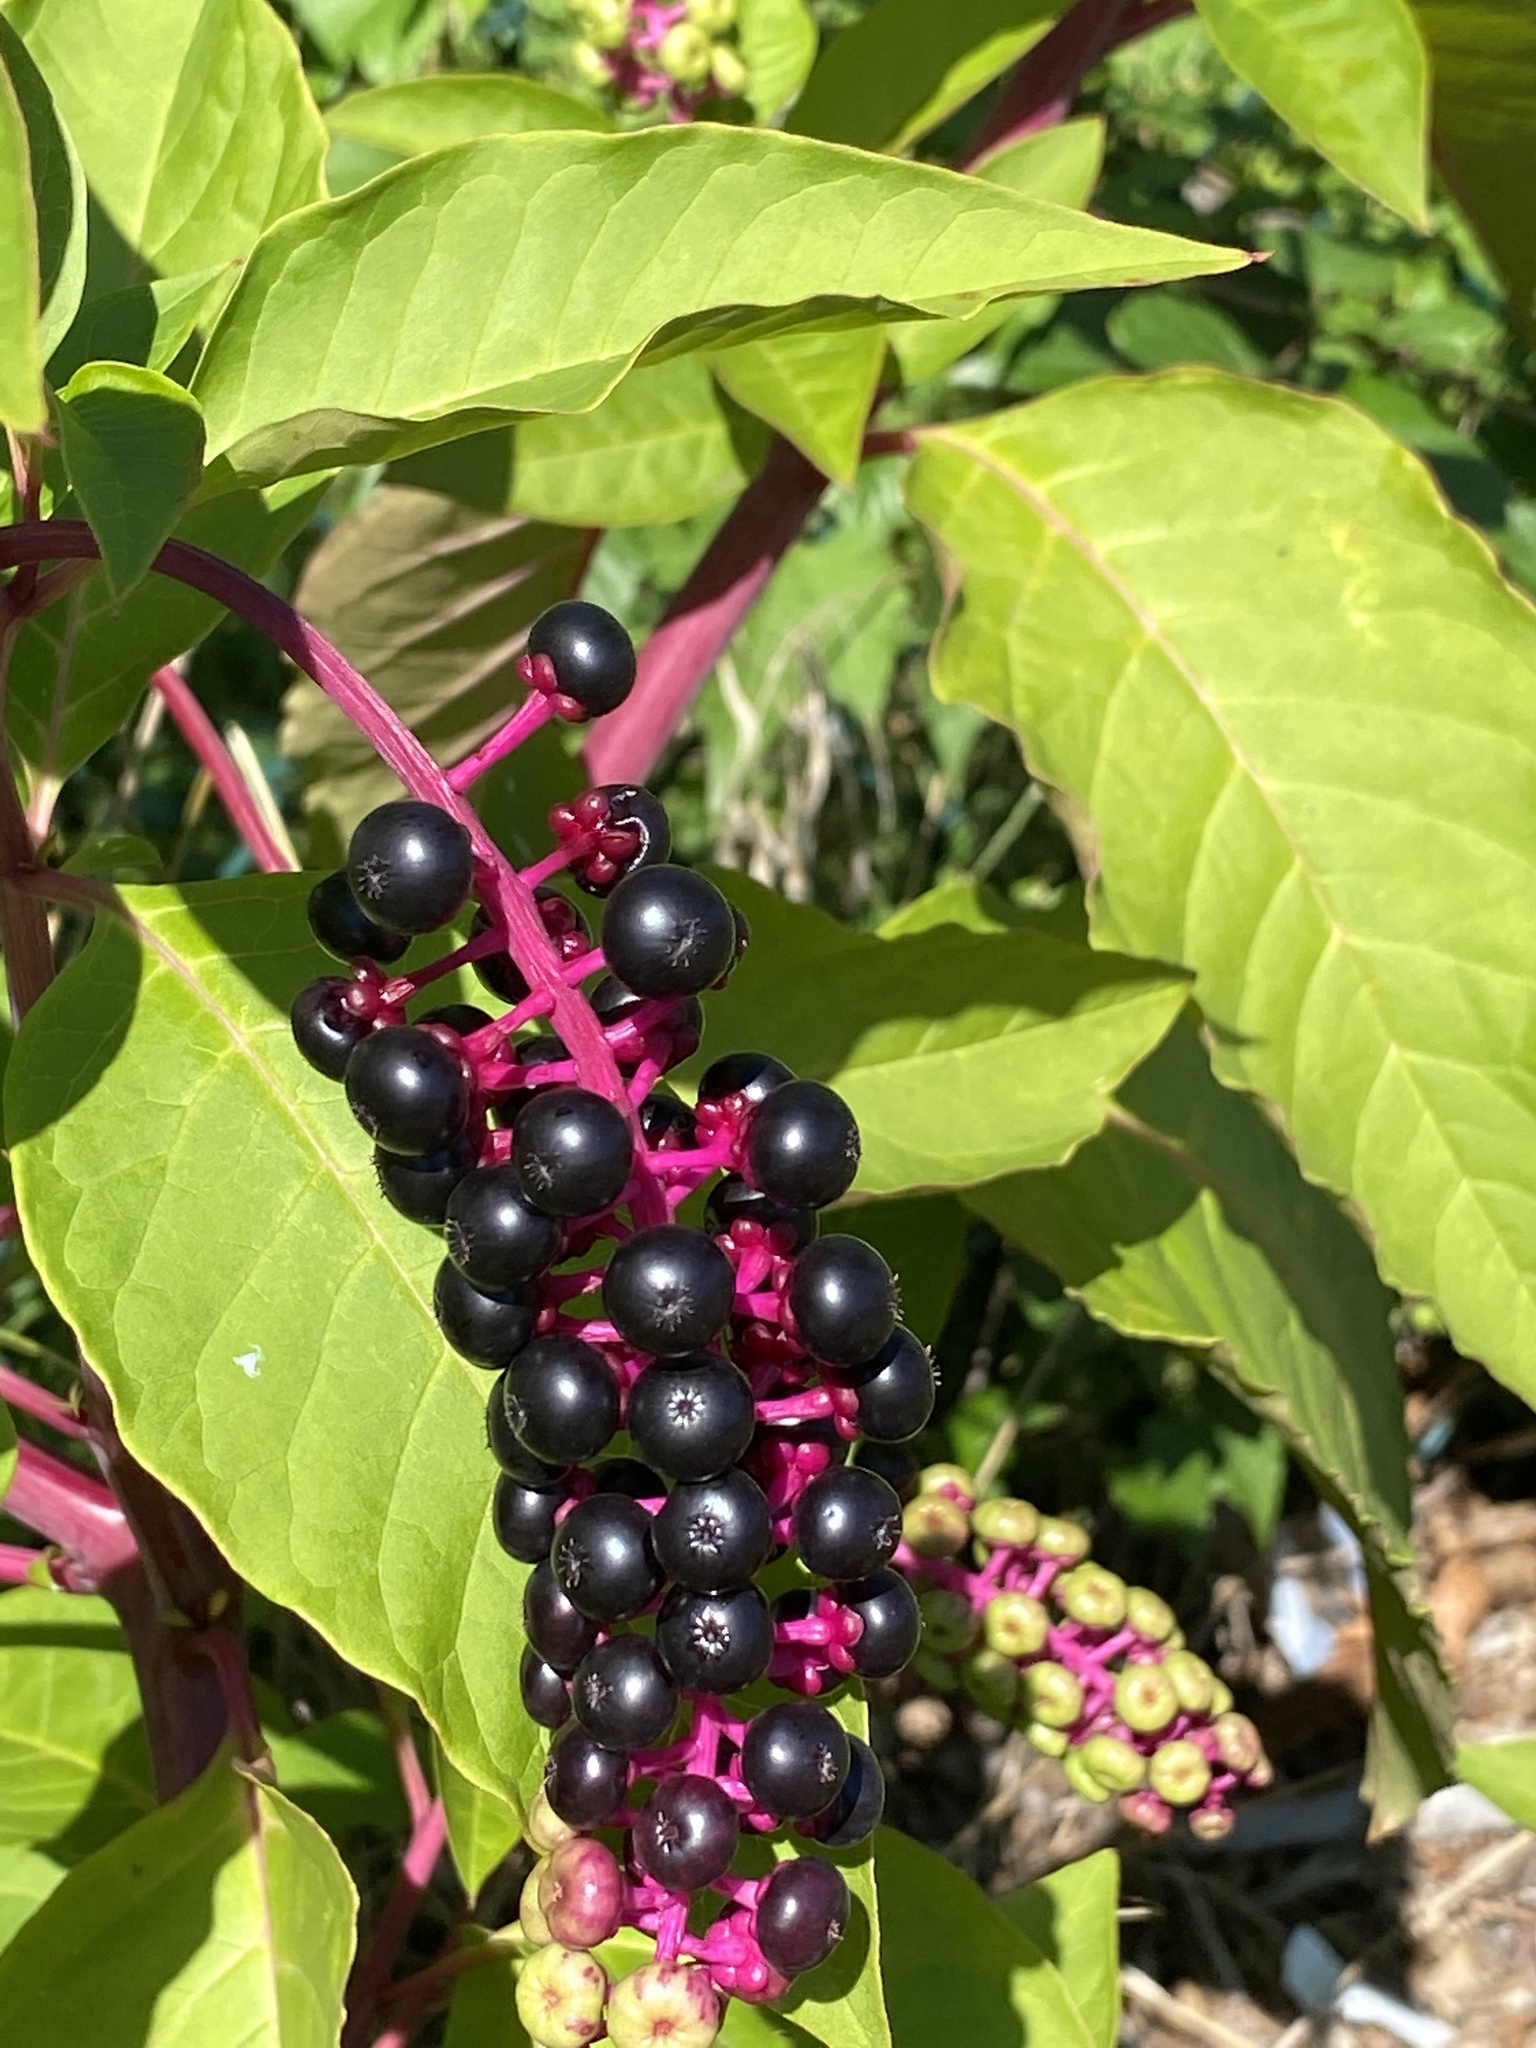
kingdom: Plantae
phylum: Tracheophyta
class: Magnoliopsida
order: Caryophyllales
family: Phytolaccaceae
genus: Phytolacca
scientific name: Phytolacca americana
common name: American pokeweed
